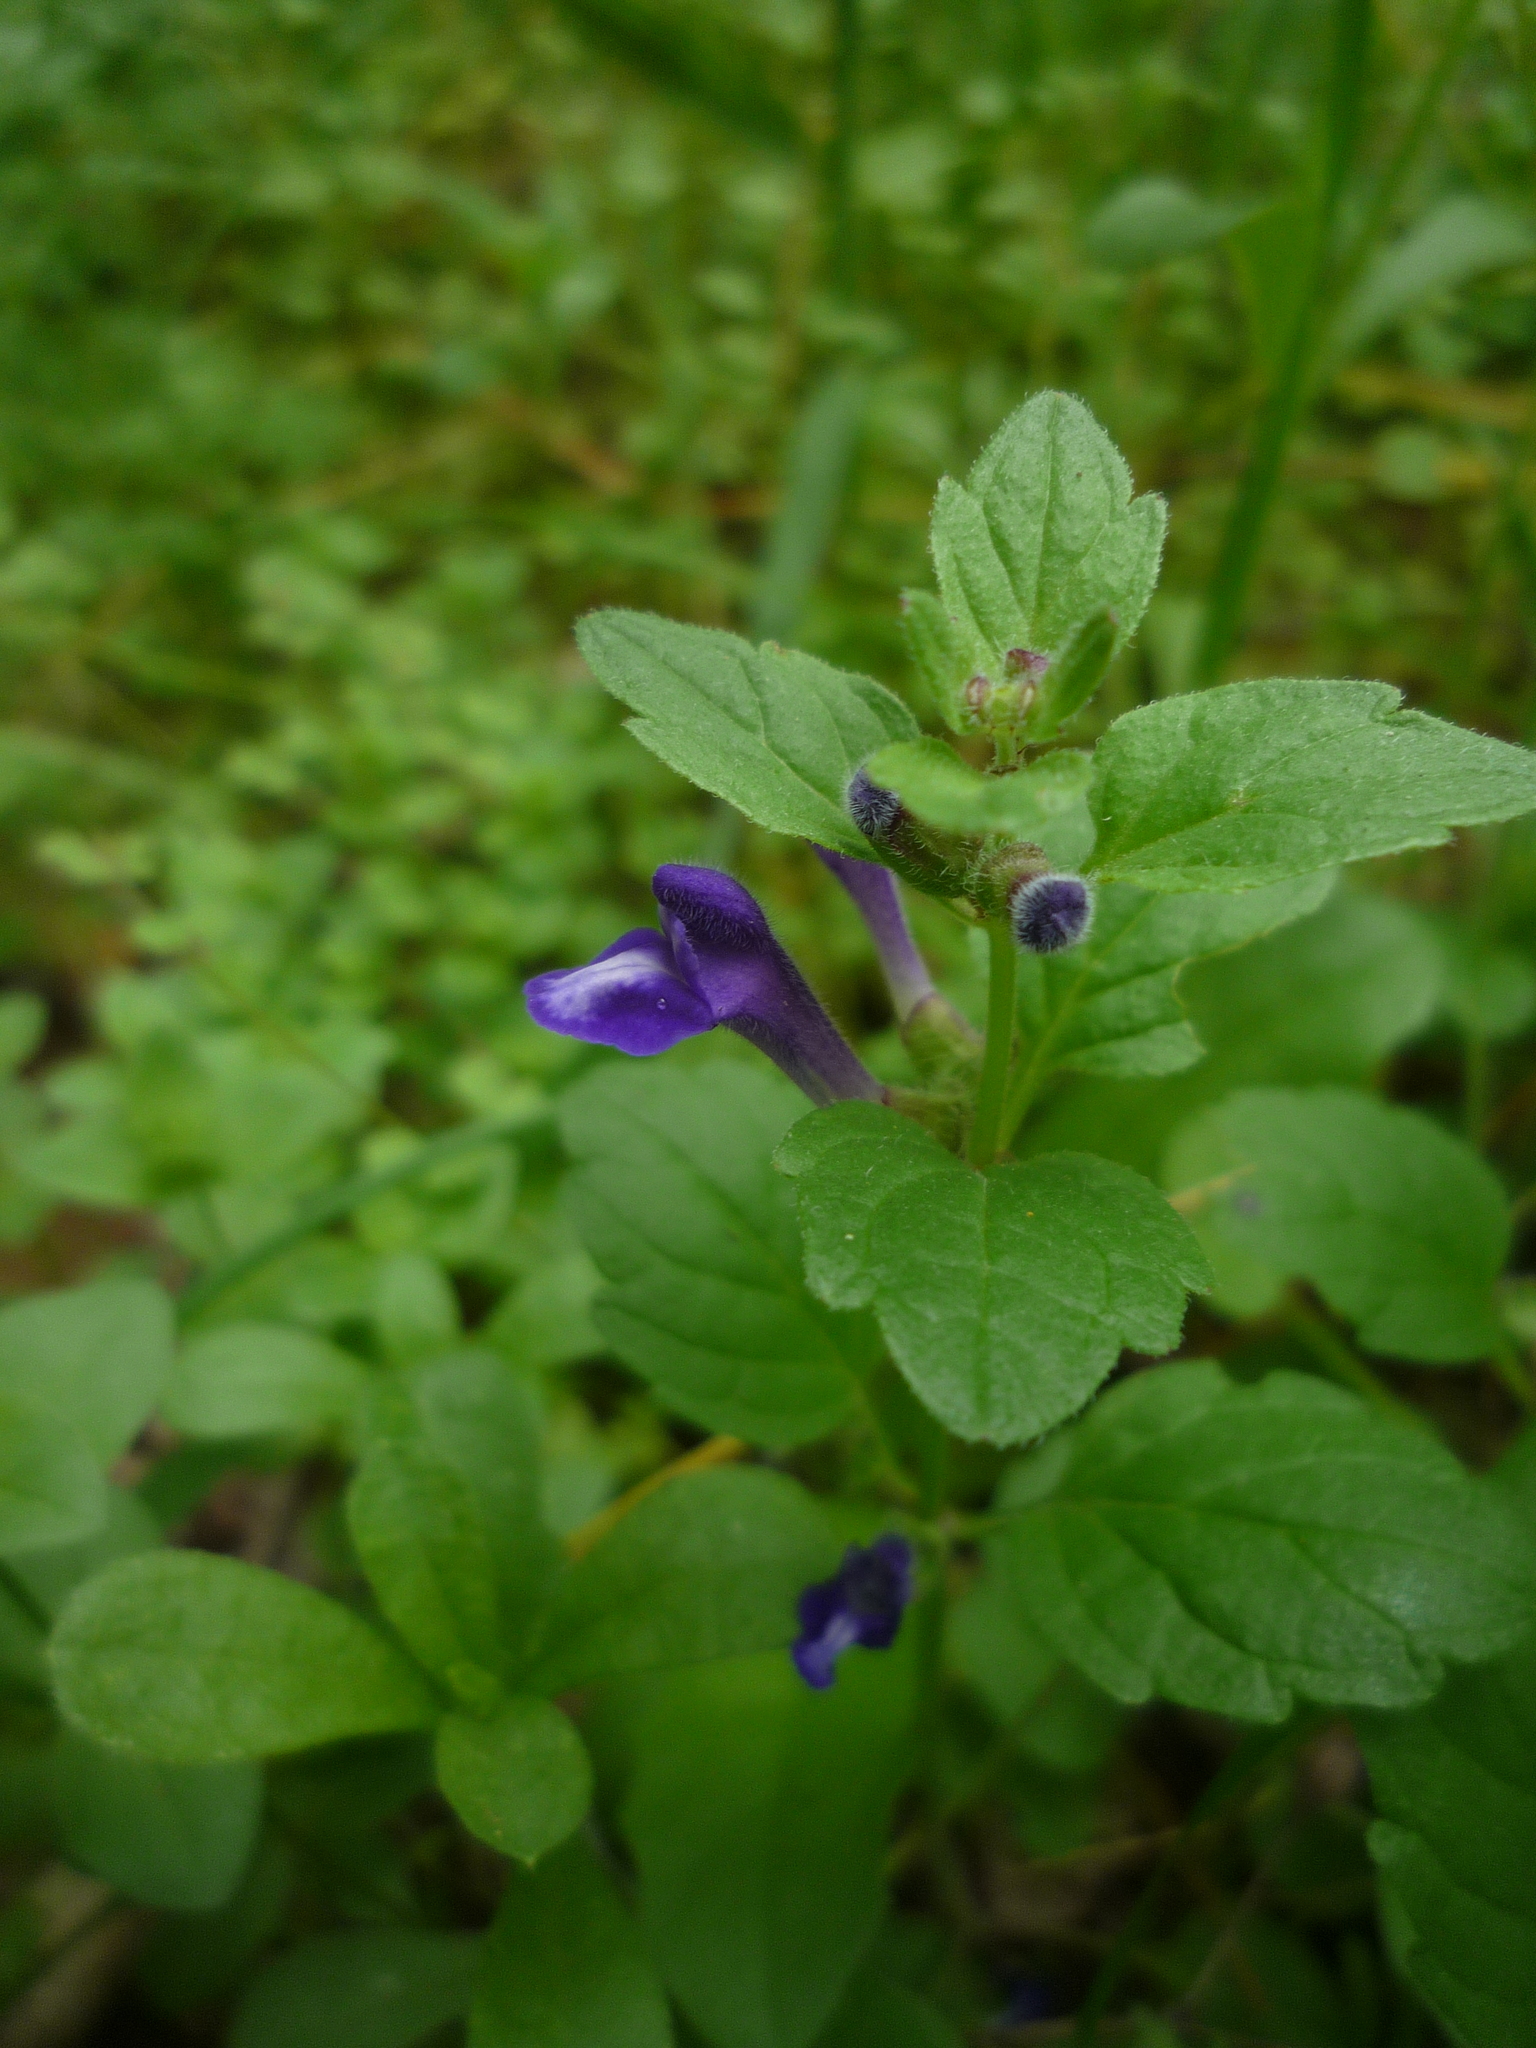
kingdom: Plantae
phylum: Tracheophyta
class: Magnoliopsida
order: Lamiales
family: Lamiaceae
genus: Scutellaria
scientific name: Scutellaria tuberosa
